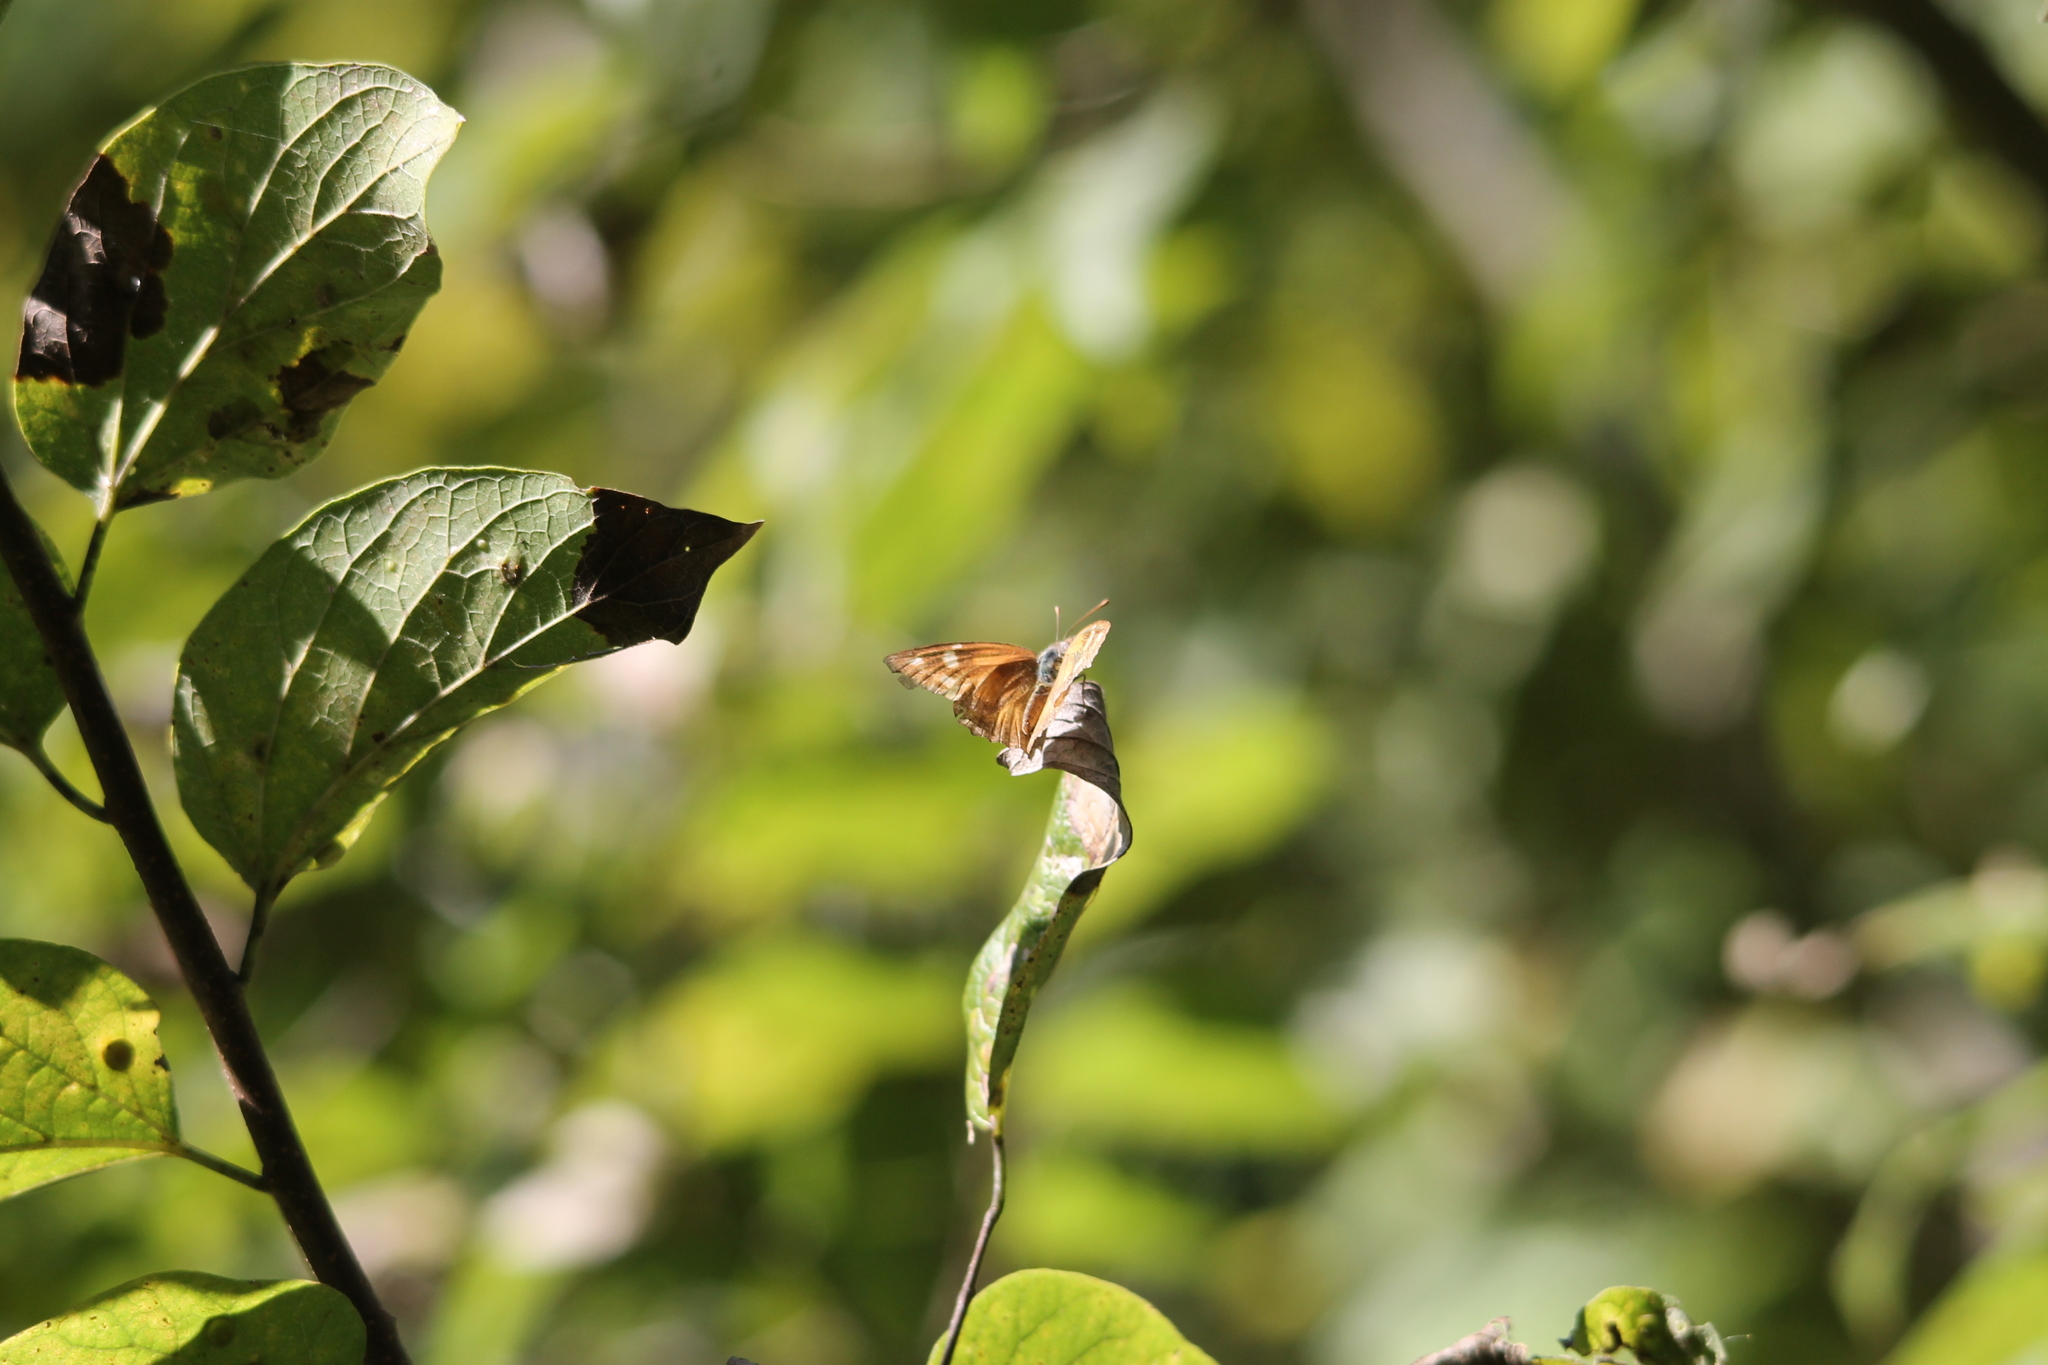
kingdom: Animalia
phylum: Arthropoda
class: Insecta
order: Lepidoptera
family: Nymphalidae
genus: Libytheana
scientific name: Libytheana carinenta
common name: American snout
